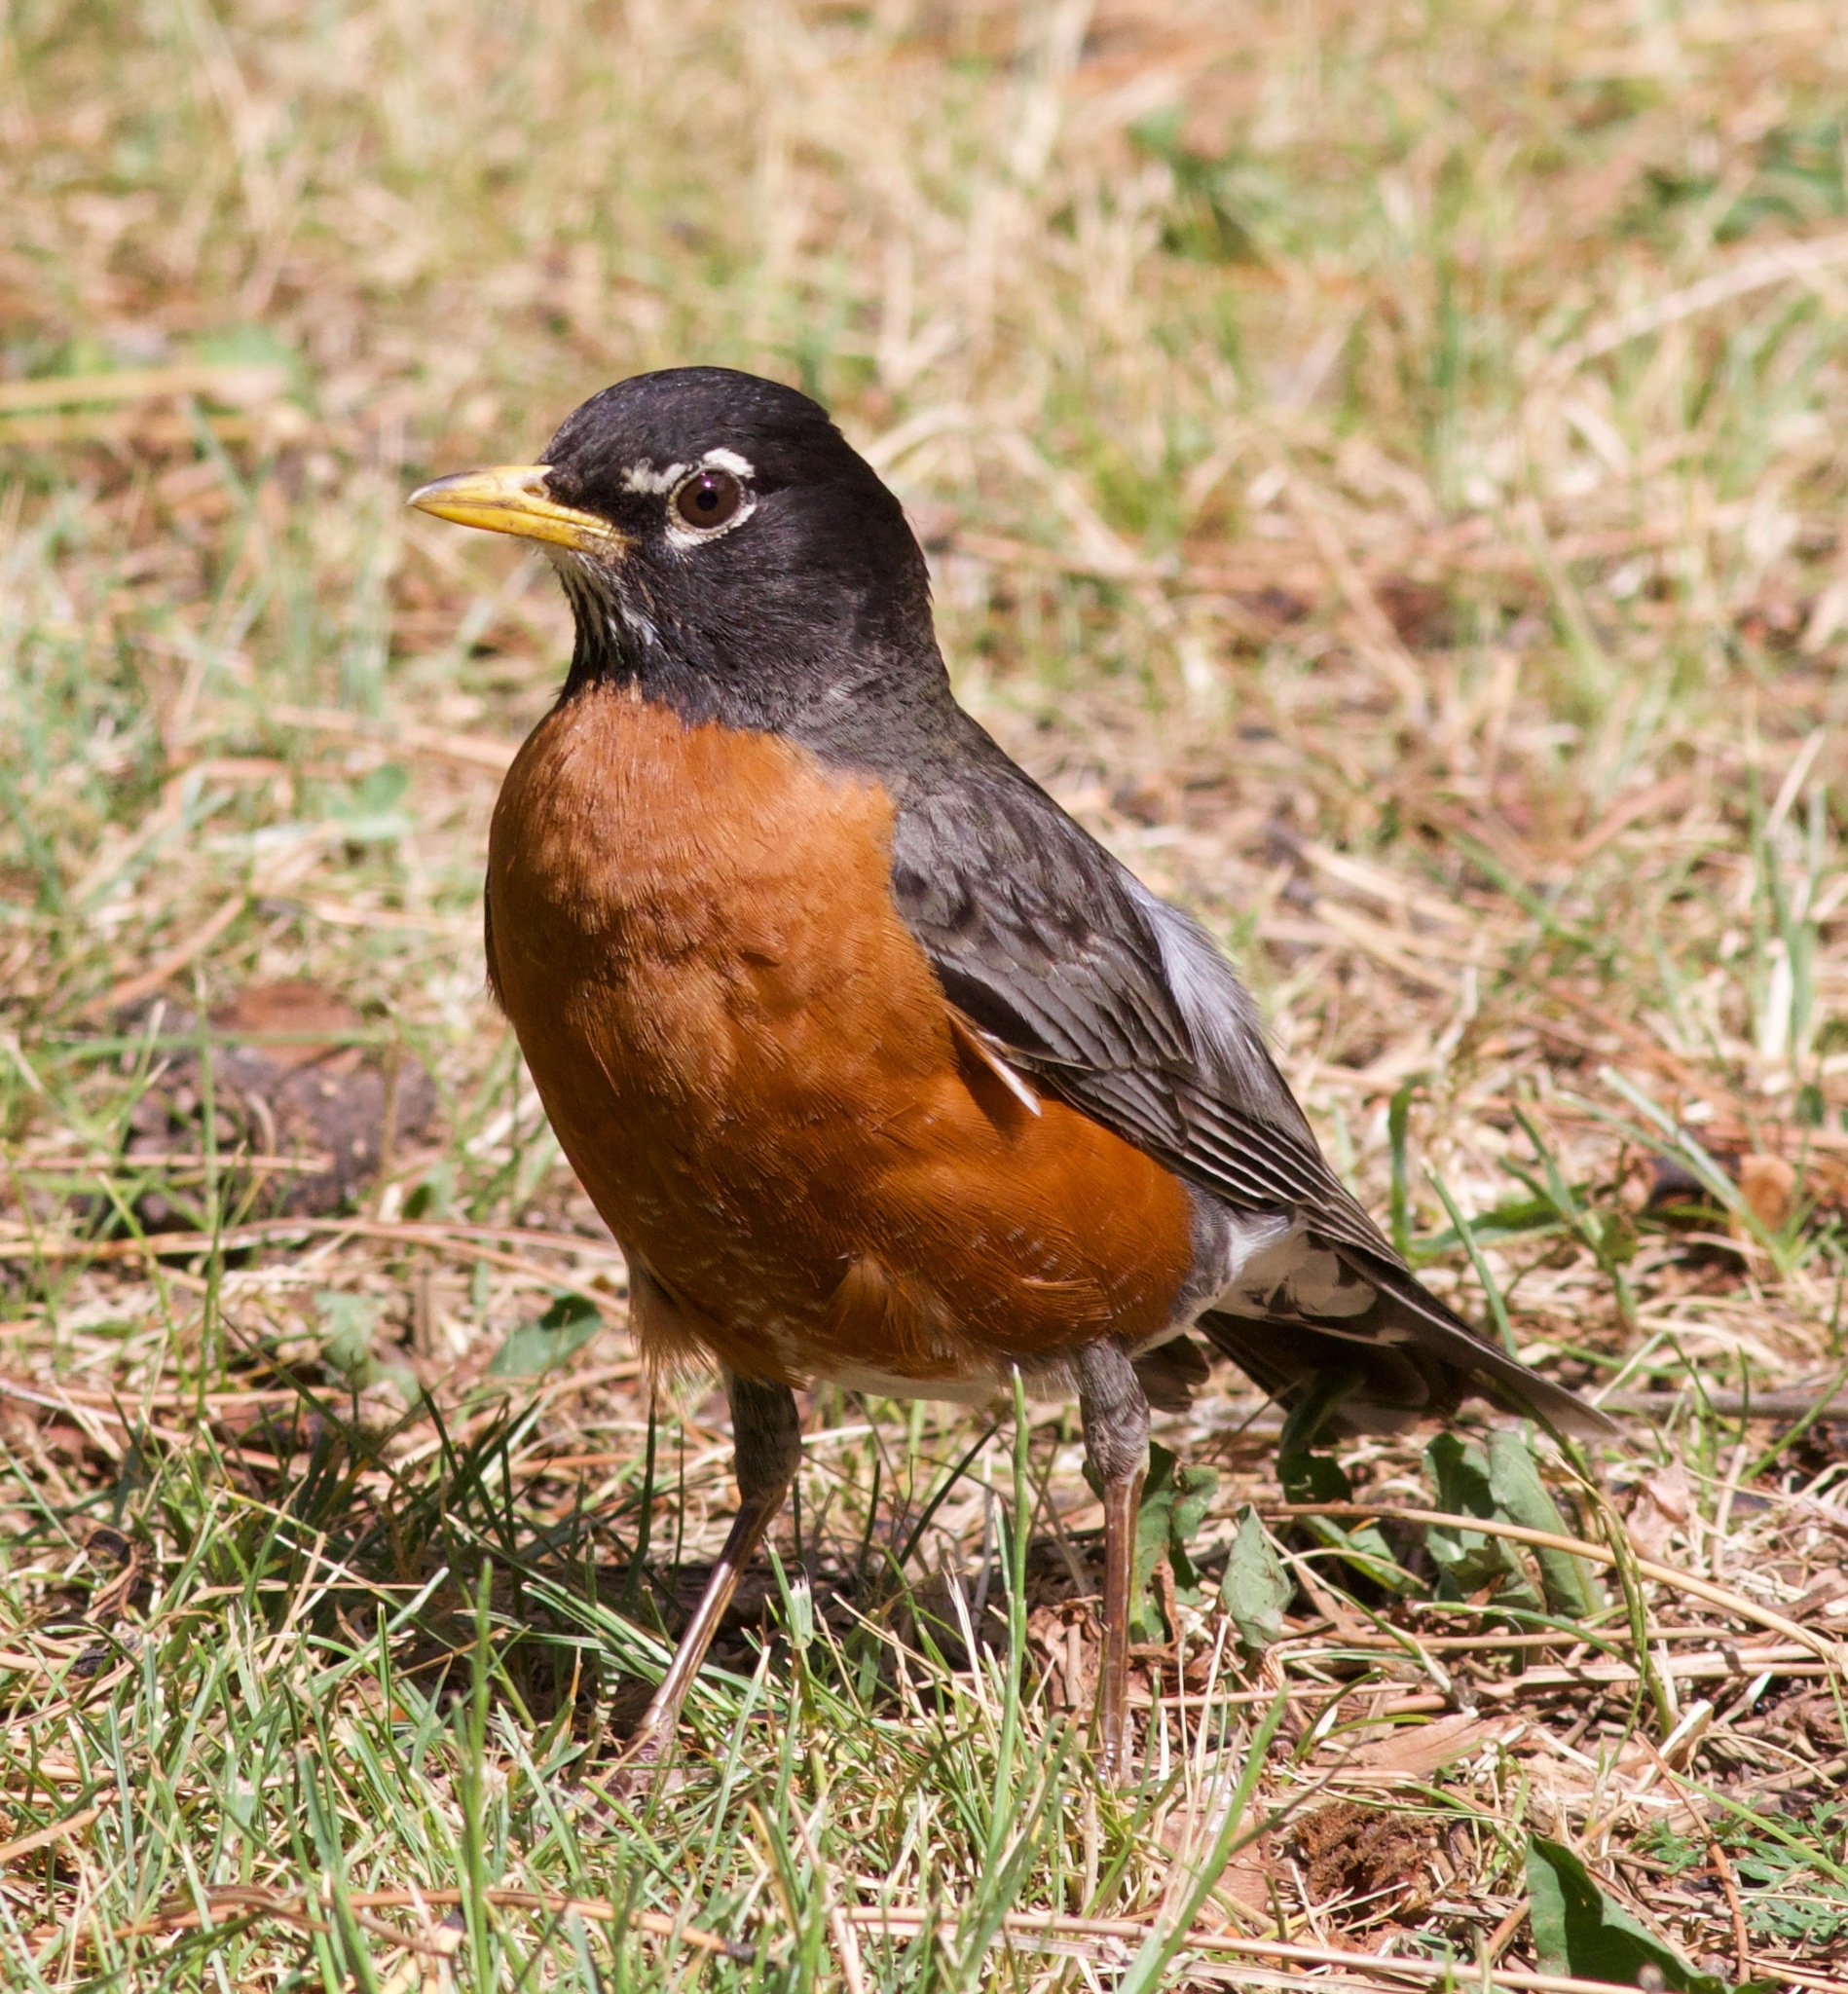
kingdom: Animalia
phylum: Chordata
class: Aves
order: Passeriformes
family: Turdidae
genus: Turdus
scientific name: Turdus migratorius
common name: American robin
